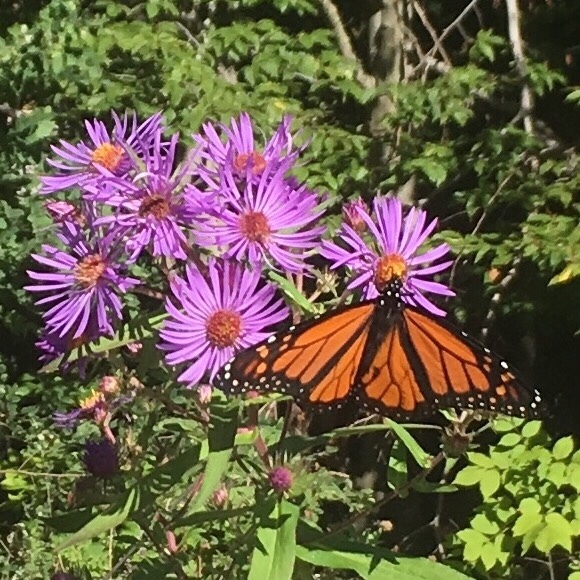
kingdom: Animalia
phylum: Arthropoda
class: Insecta
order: Lepidoptera
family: Nymphalidae
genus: Danaus
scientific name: Danaus plexippus
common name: Monarch
